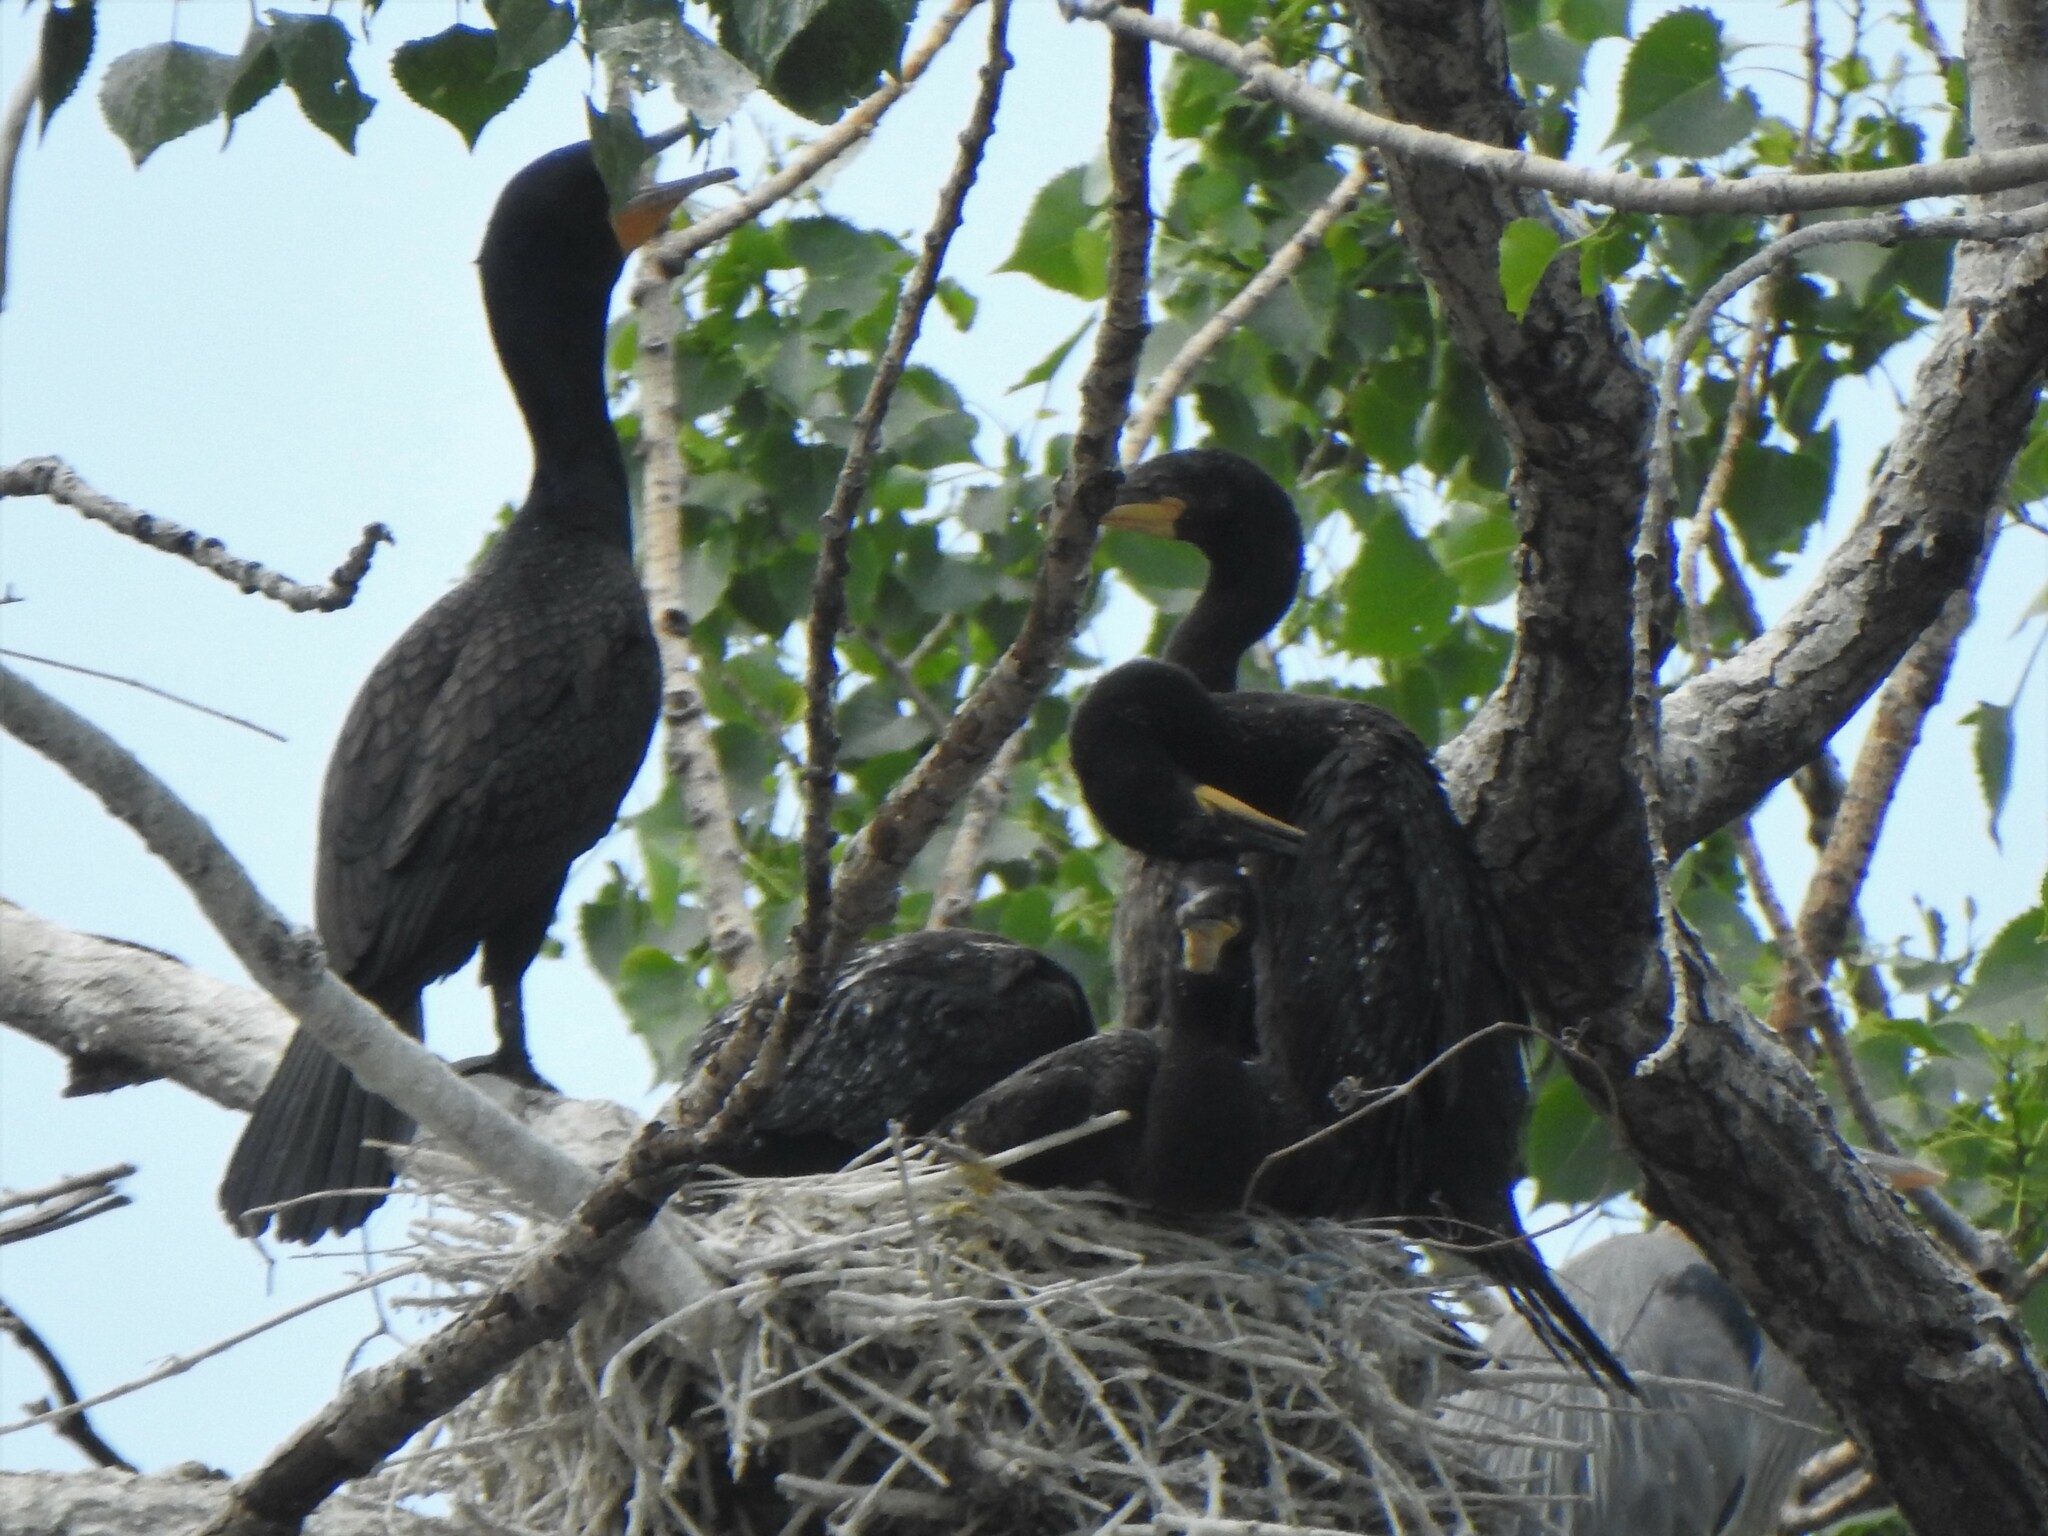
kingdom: Animalia
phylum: Chordata
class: Aves
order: Suliformes
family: Phalacrocoracidae
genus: Phalacrocorax
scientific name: Phalacrocorax auritus
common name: Double-crested cormorant
